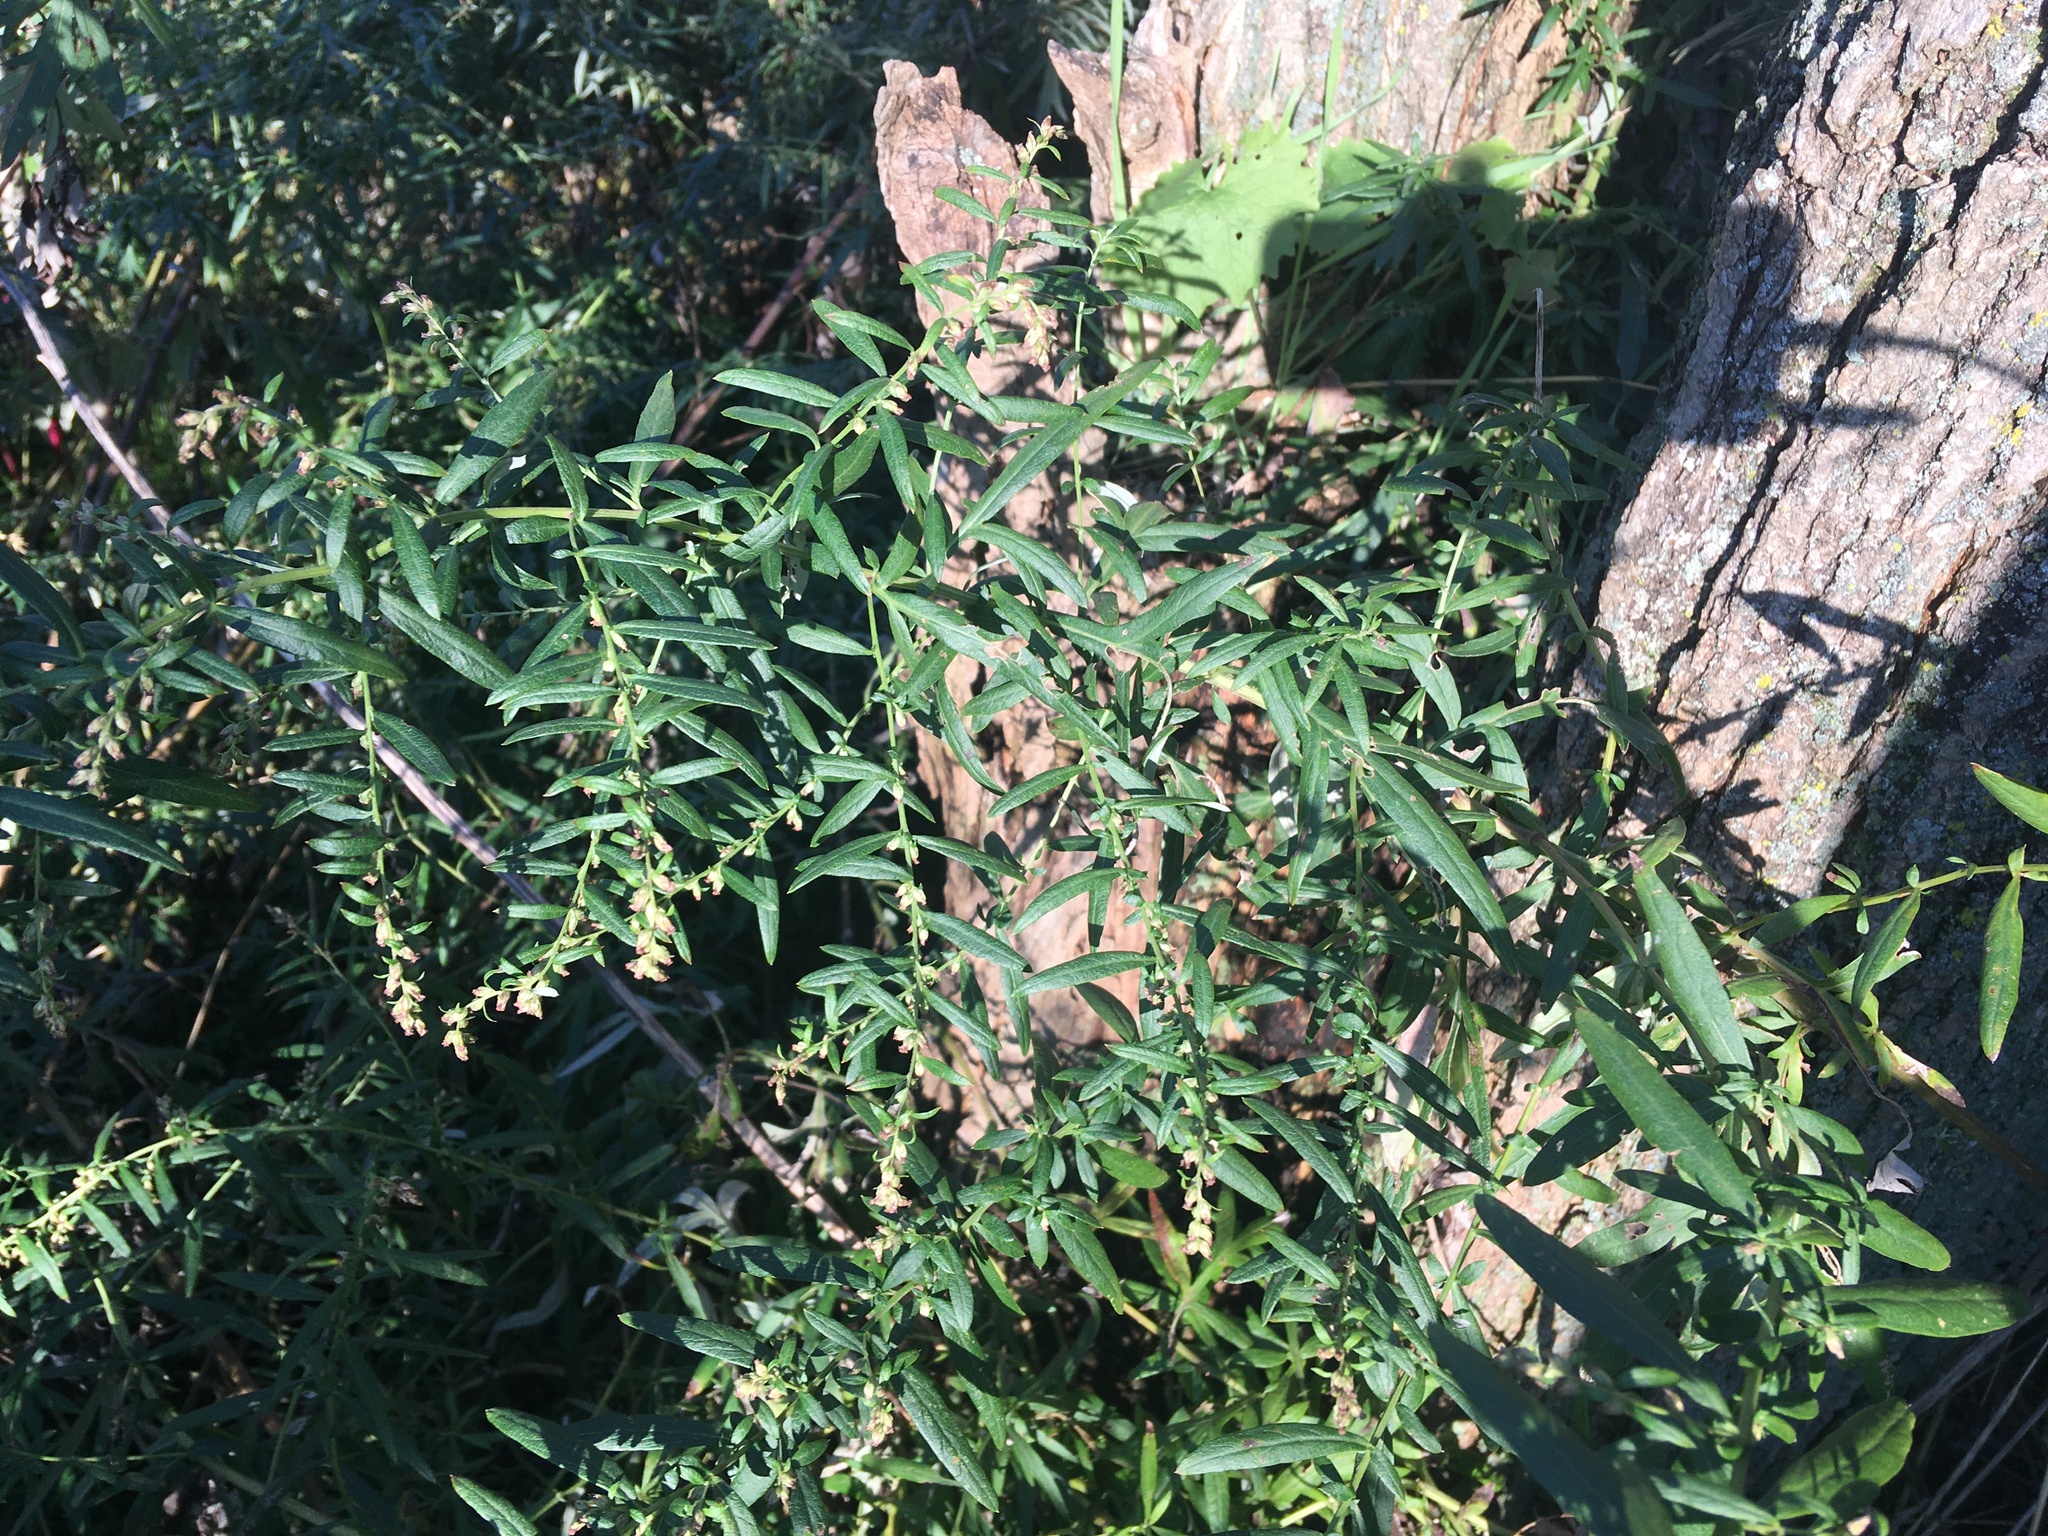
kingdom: Plantae
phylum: Tracheophyta
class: Magnoliopsida
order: Asterales
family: Asteraceae
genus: Artemisia
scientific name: Artemisia vulgaris
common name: Mugwort
